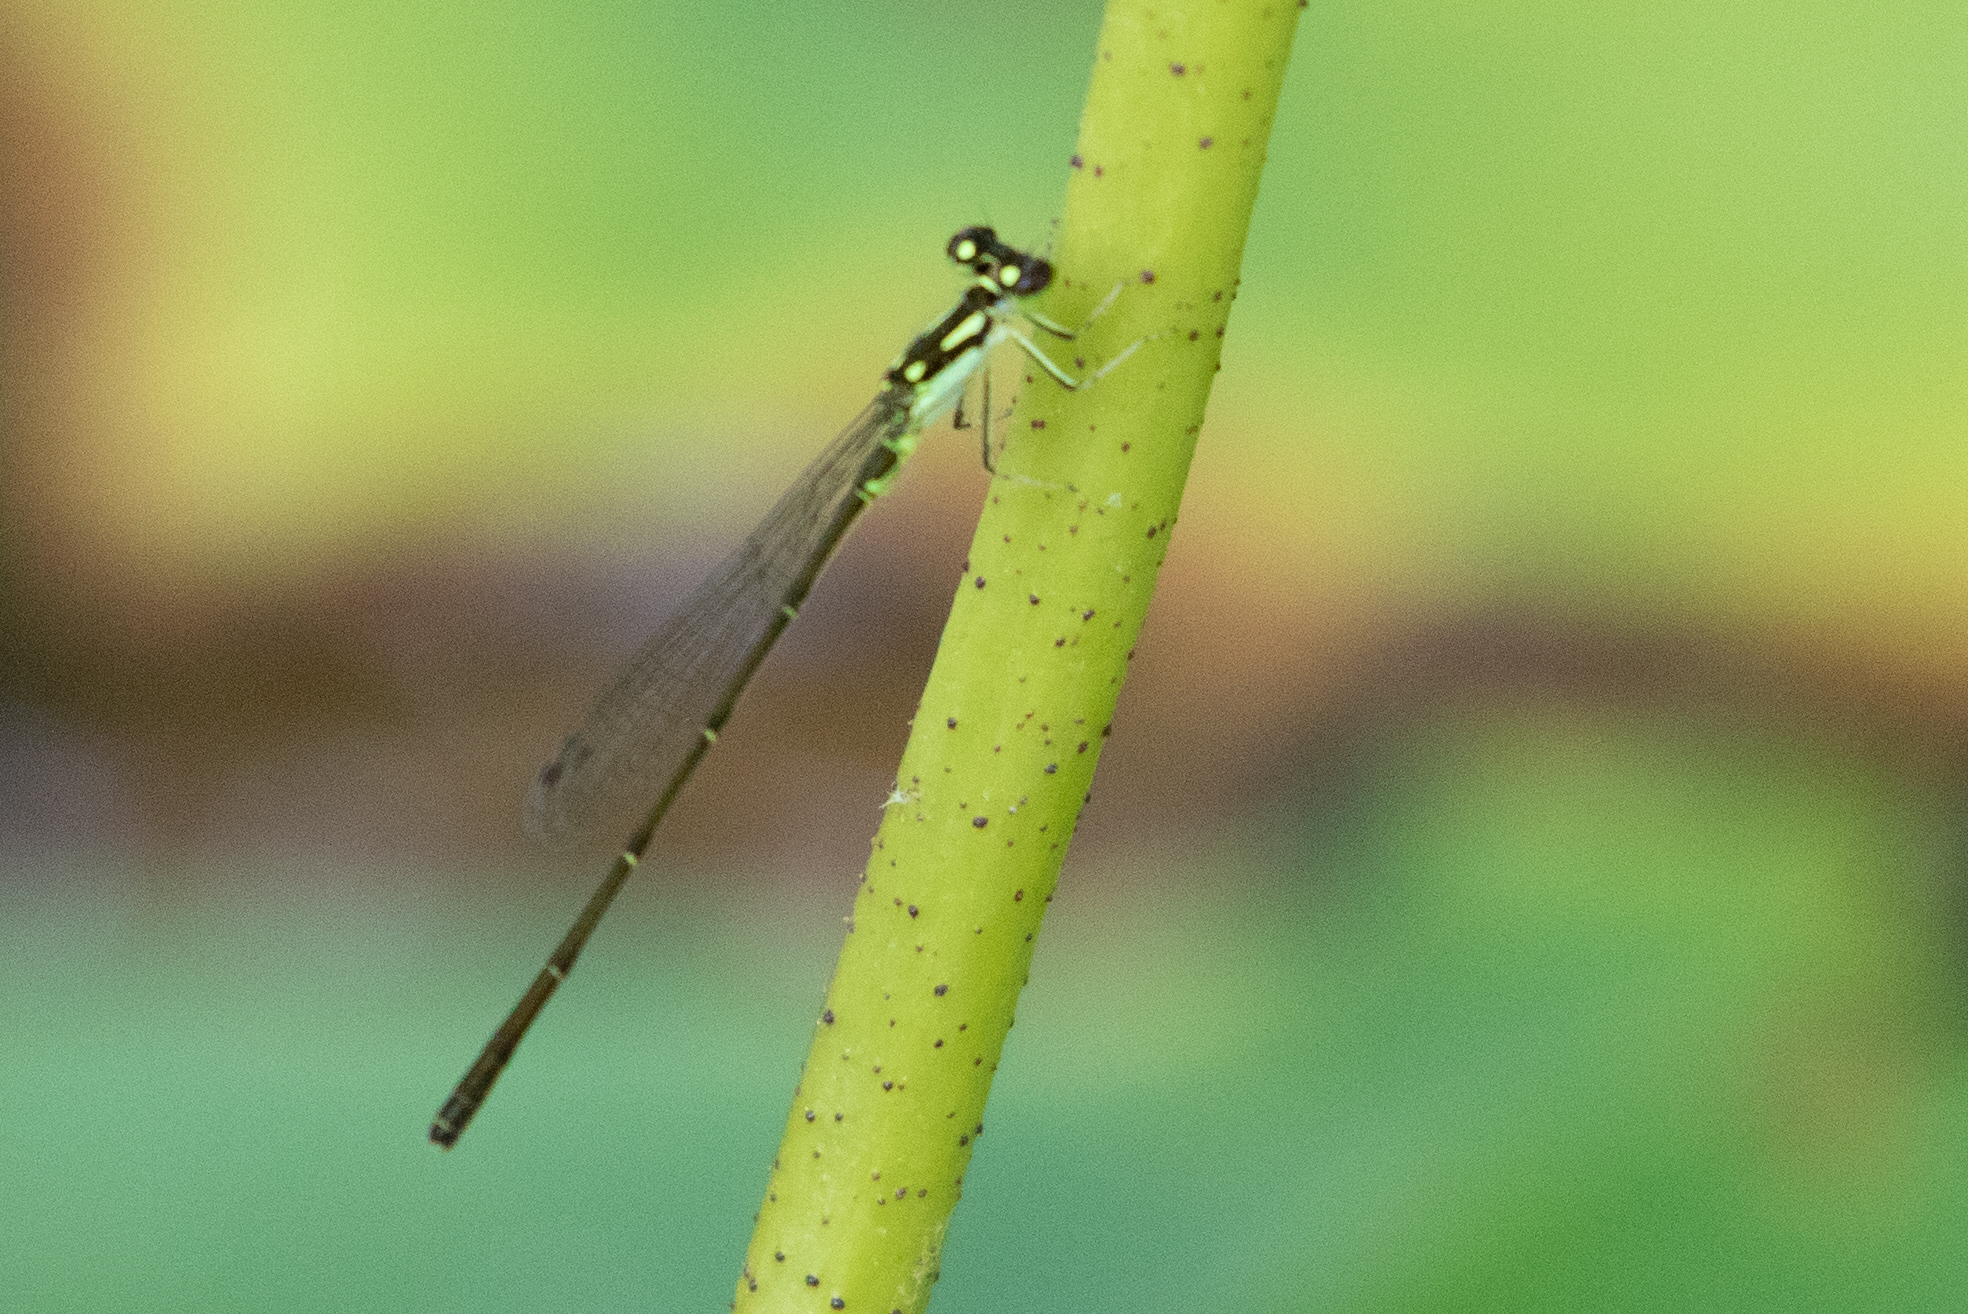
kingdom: Animalia
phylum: Arthropoda
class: Insecta
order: Odonata
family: Coenagrionidae
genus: Ischnura
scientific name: Ischnura posita
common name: Fragile forktail
